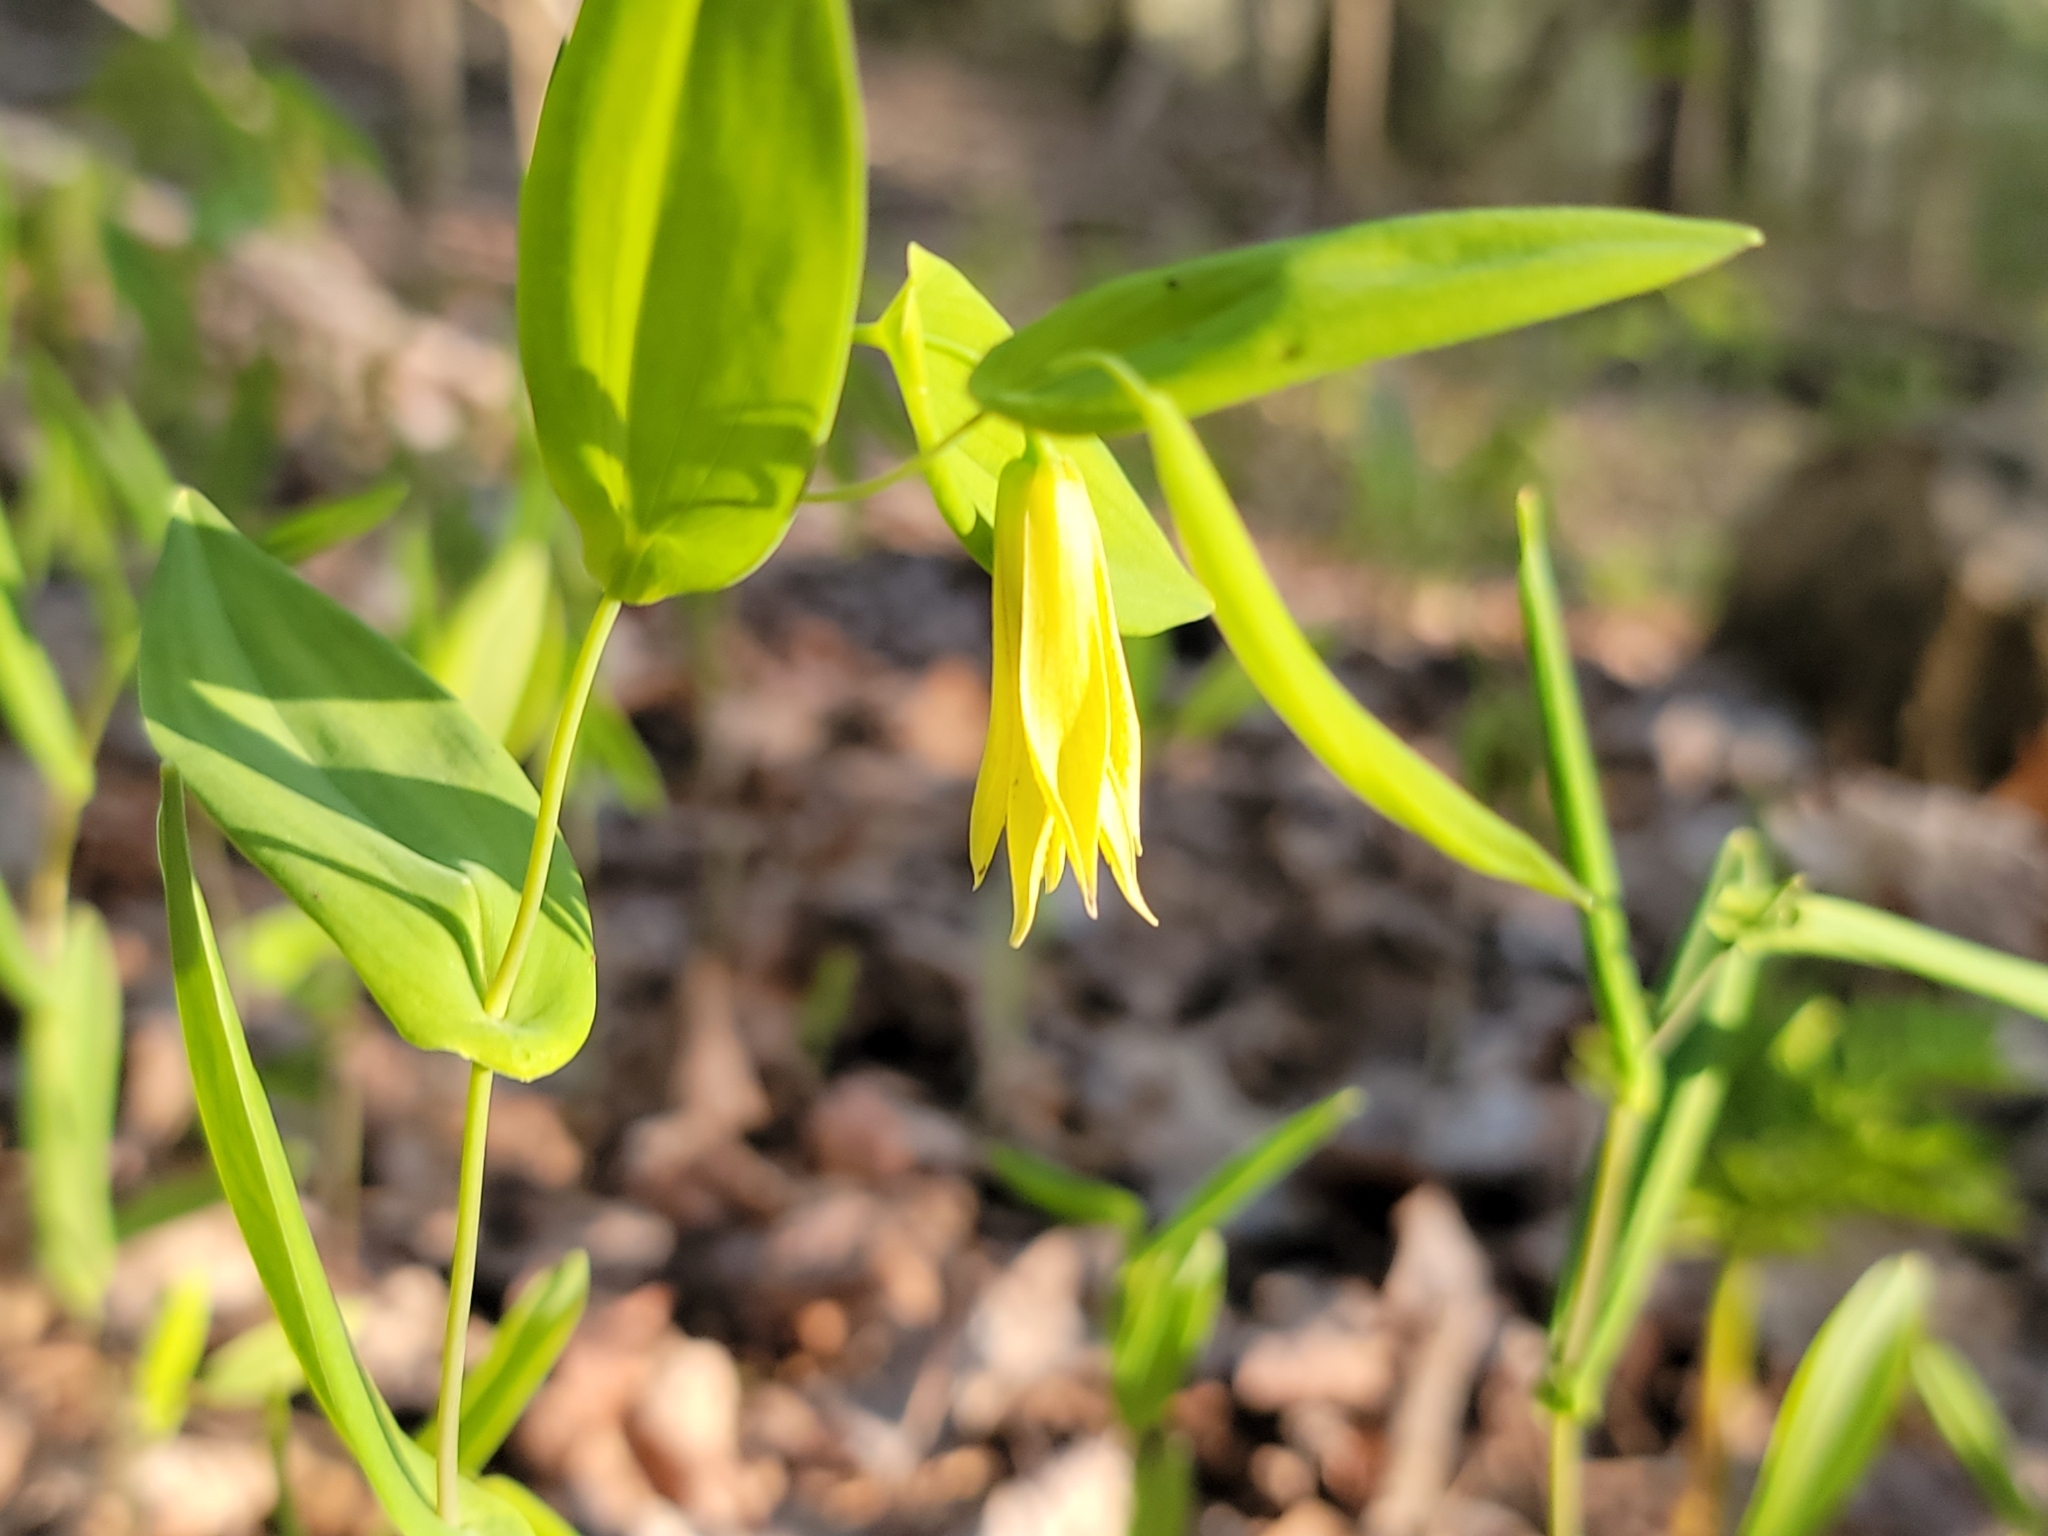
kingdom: Plantae
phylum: Tracheophyta
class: Liliopsida
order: Liliales
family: Colchicaceae
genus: Uvularia
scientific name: Uvularia perfoliata
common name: Perfoliate bellwort
